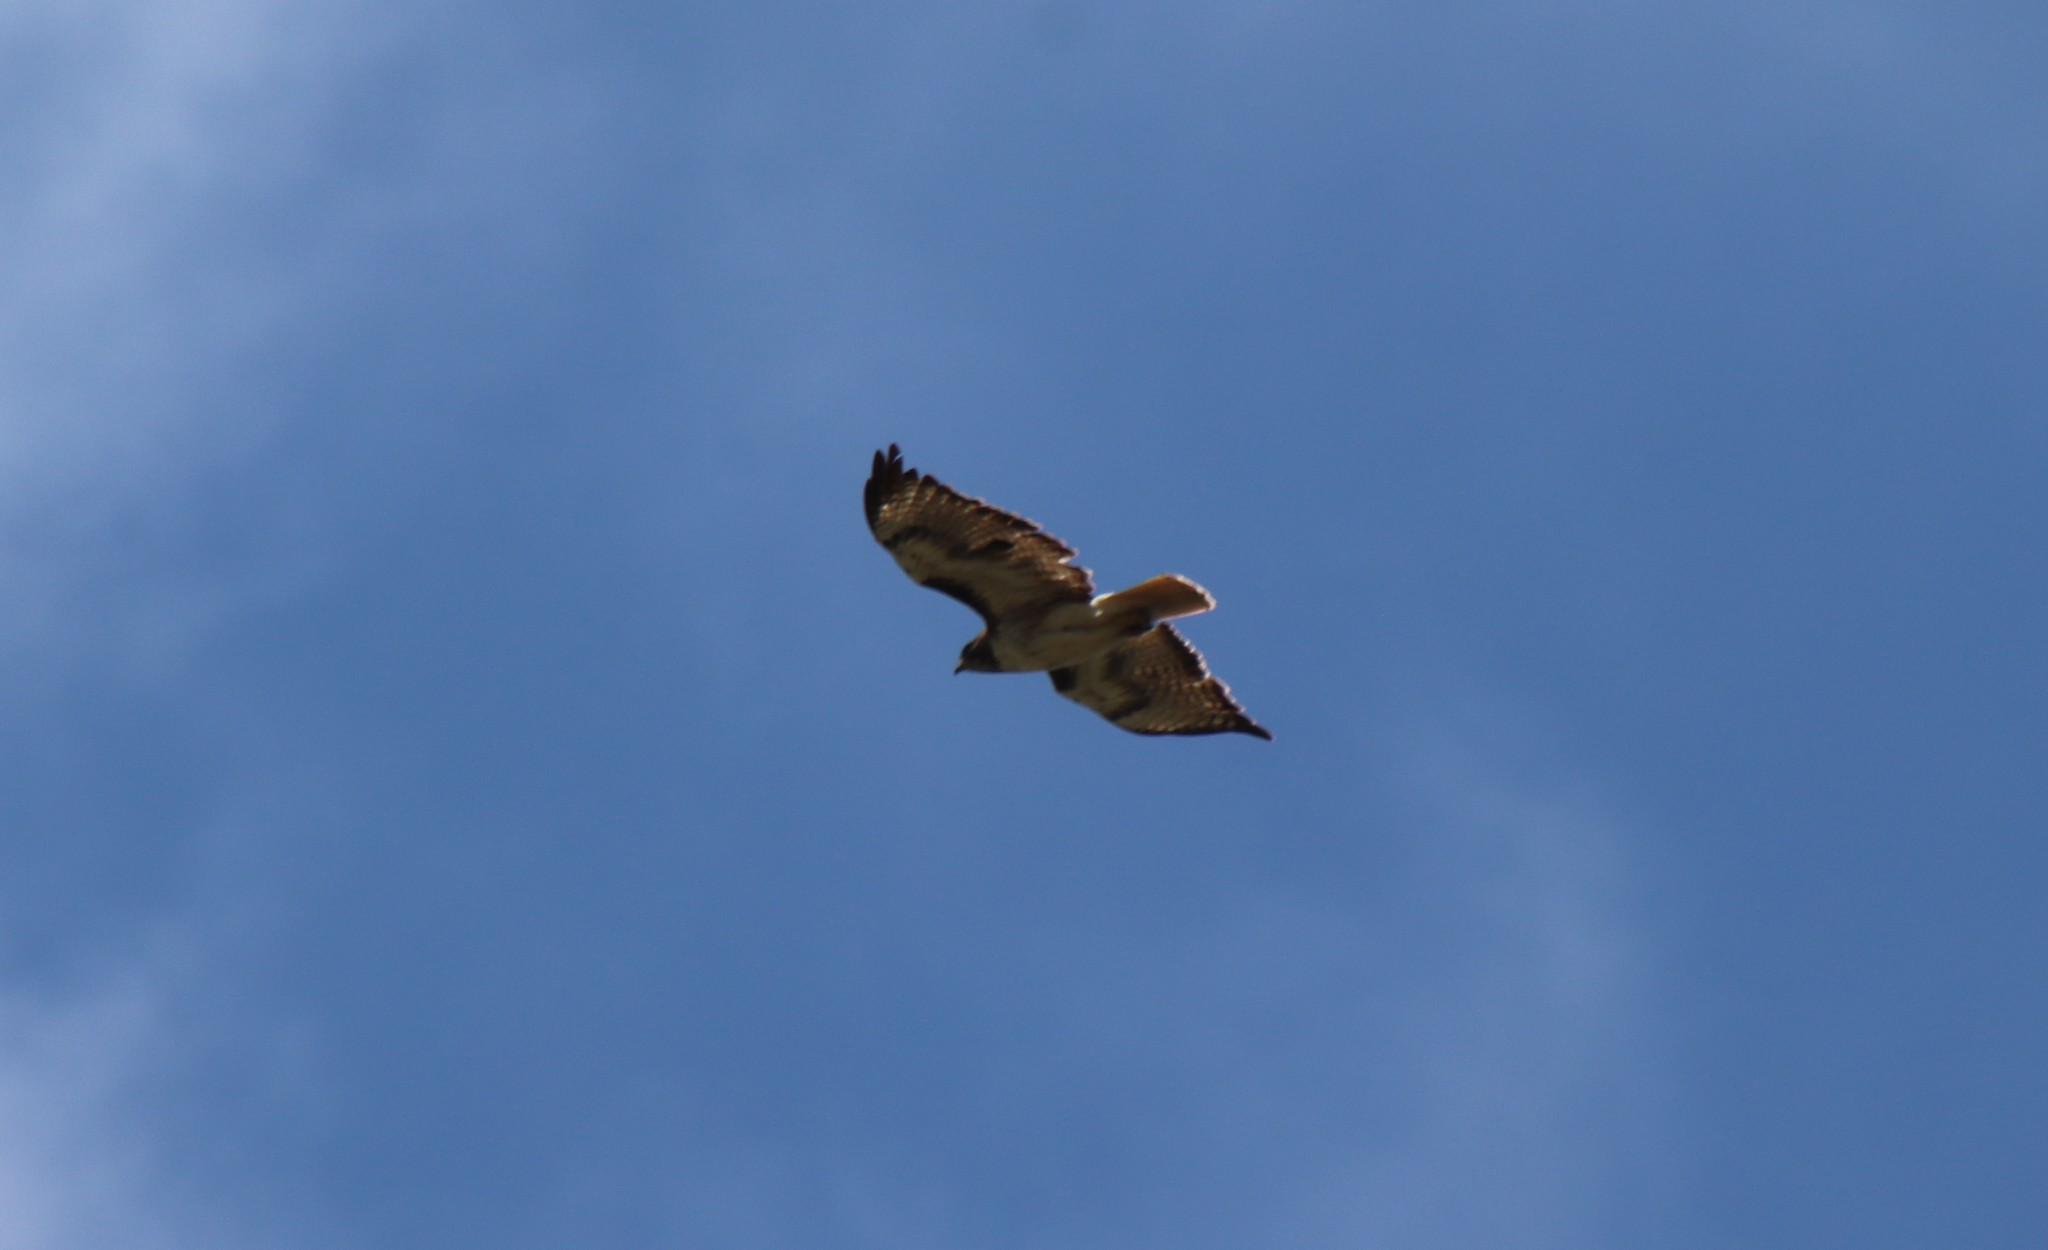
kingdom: Animalia
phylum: Chordata
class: Aves
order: Accipitriformes
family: Accipitridae
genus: Buteo
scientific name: Buteo jamaicensis
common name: Red-tailed hawk
